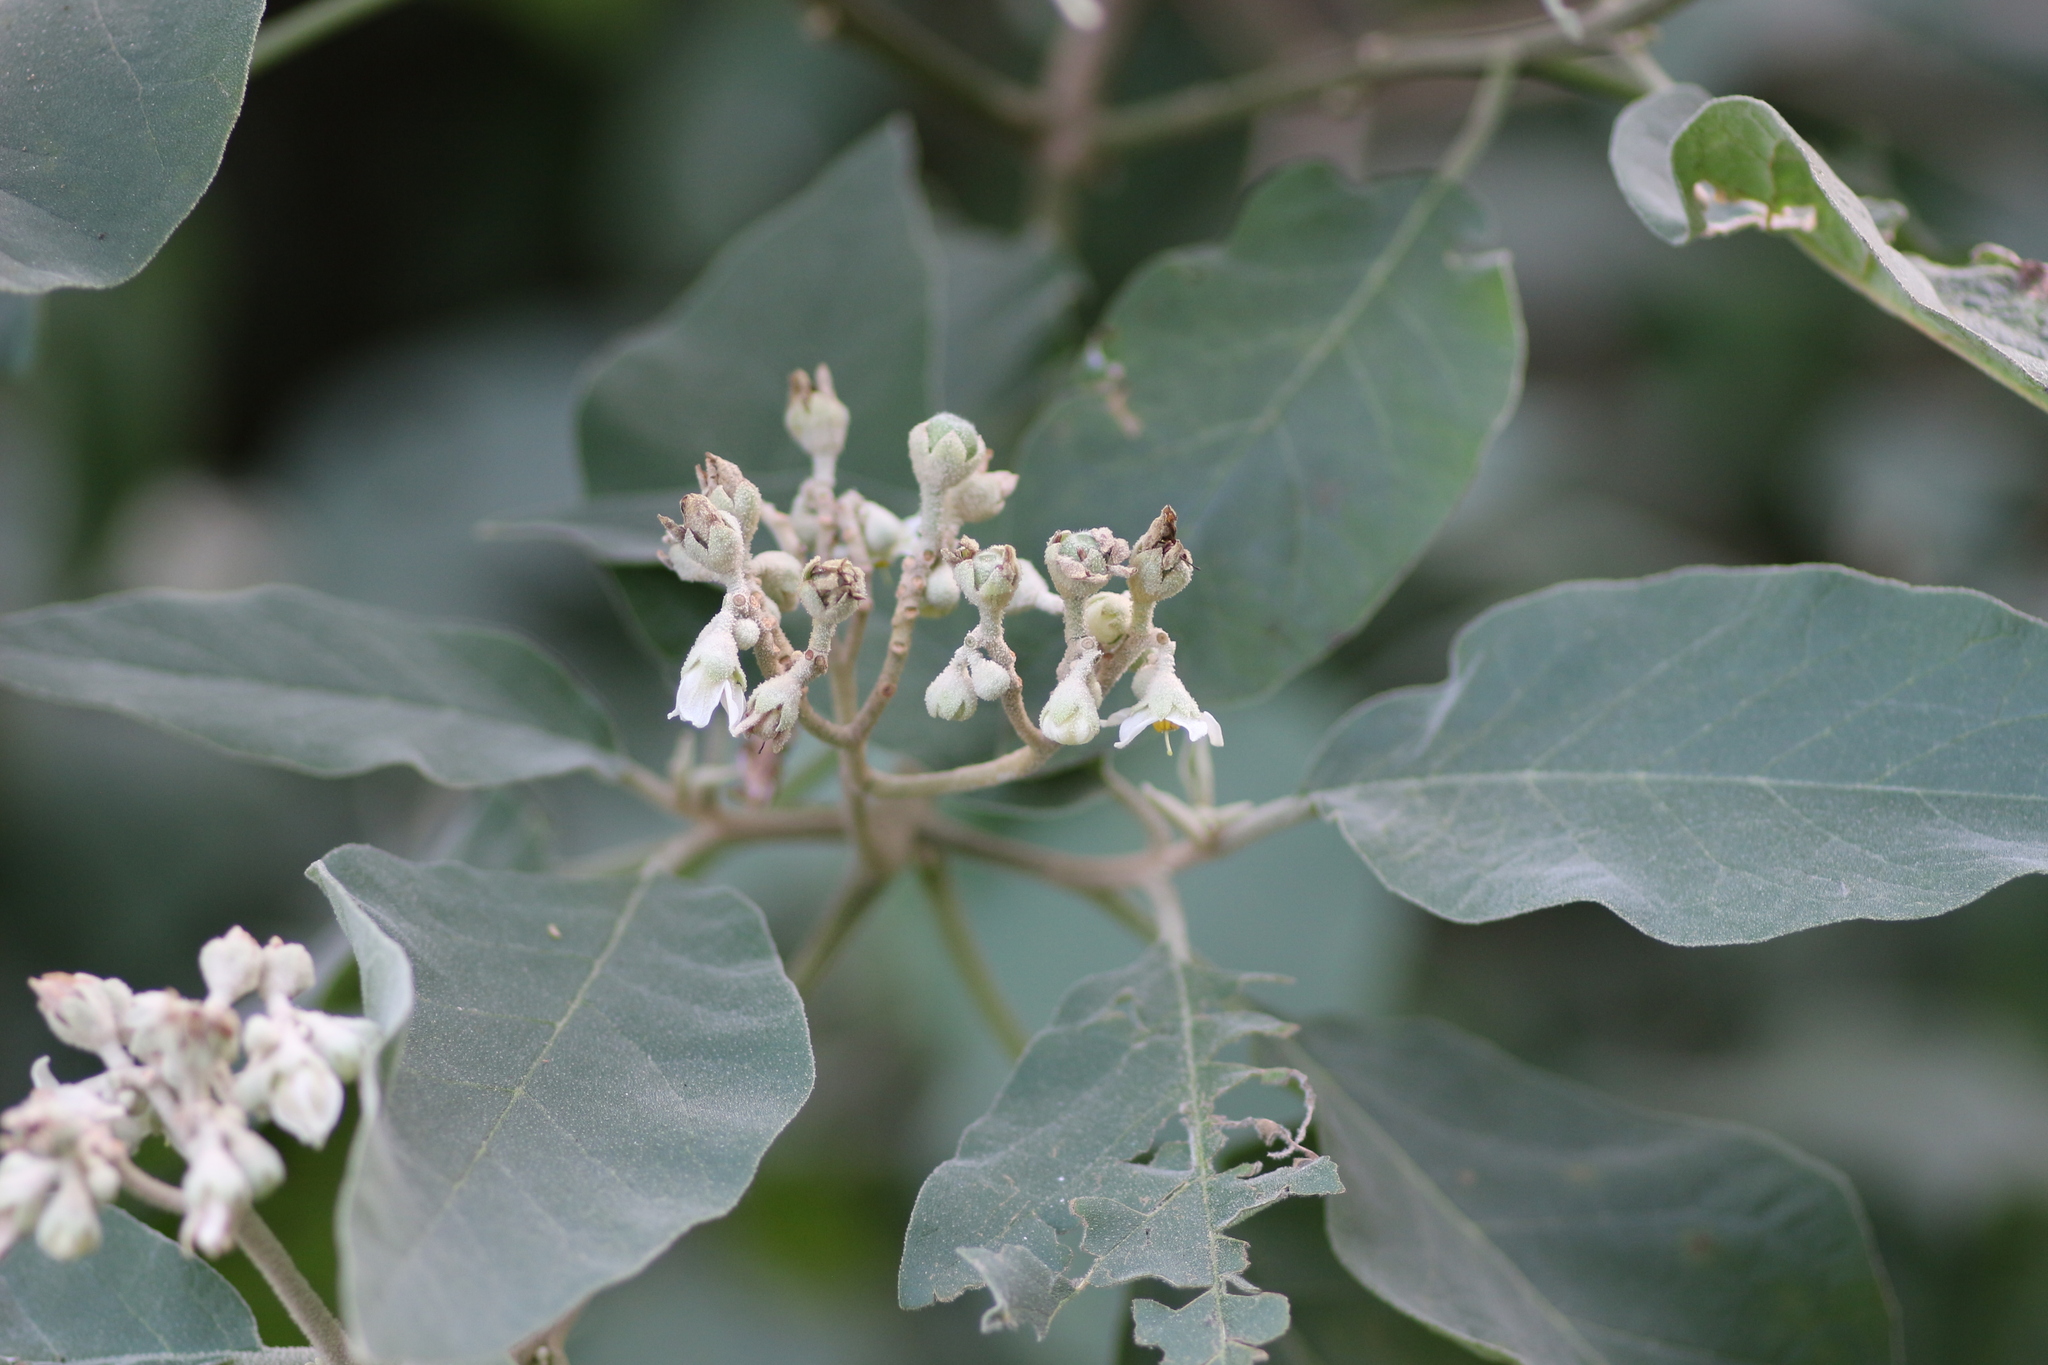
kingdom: Plantae
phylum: Tracheophyta
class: Magnoliopsida
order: Solanales
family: Solanaceae
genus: Solanum
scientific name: Solanum erianthum
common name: Tobacco-tree
